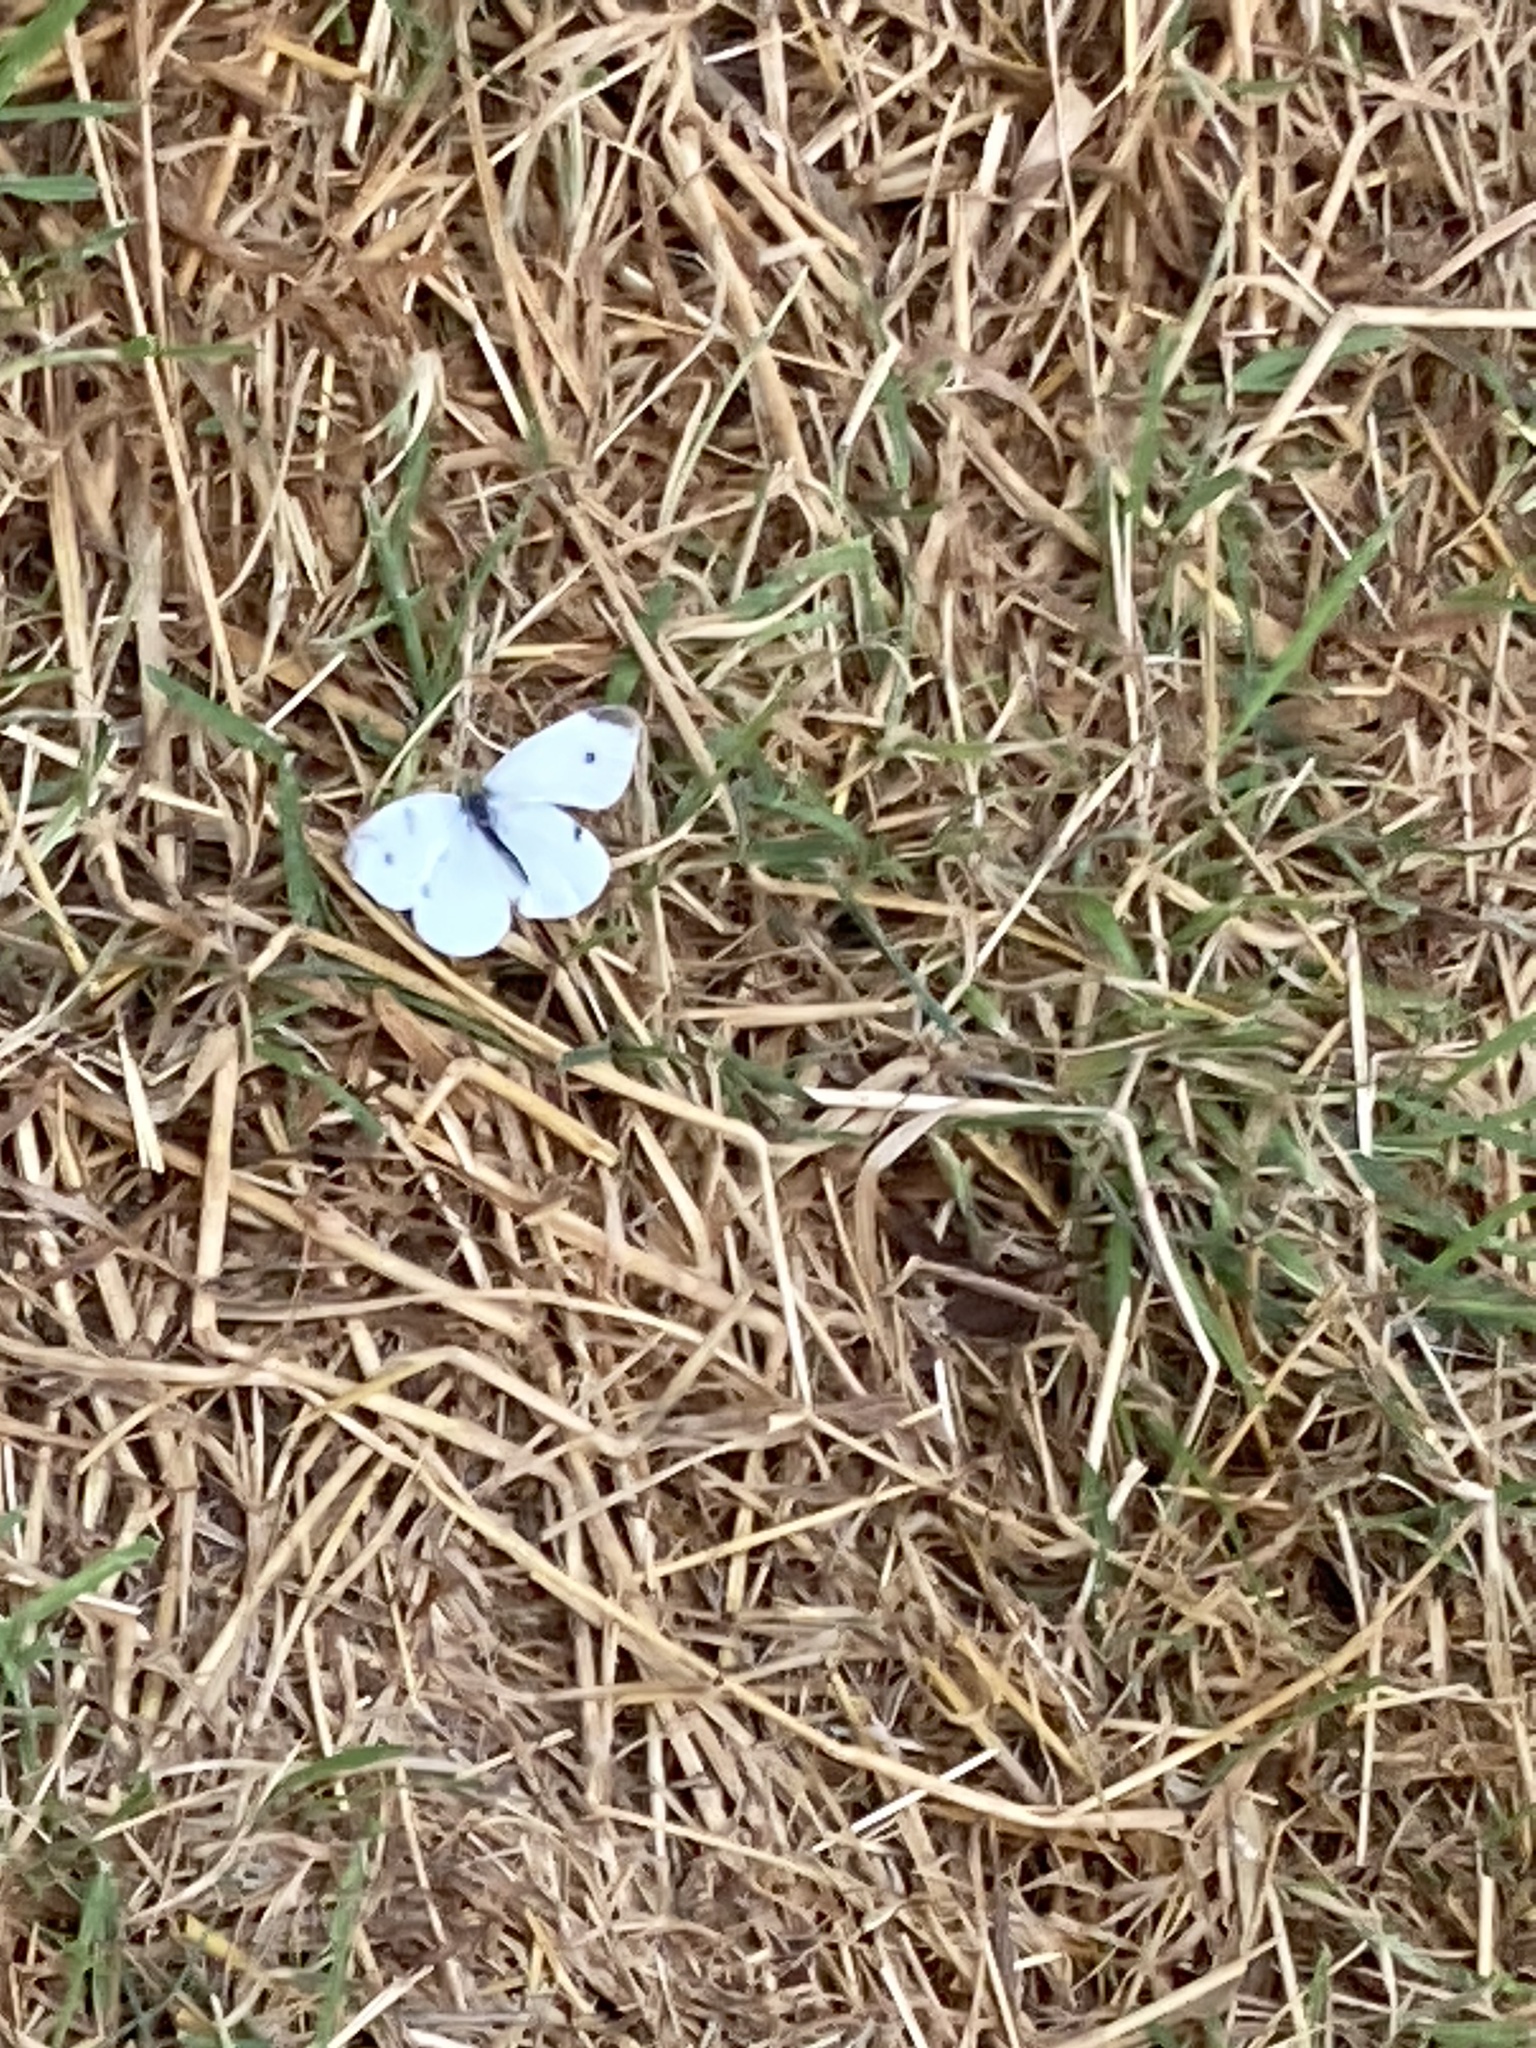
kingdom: Animalia
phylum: Arthropoda
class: Insecta
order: Lepidoptera
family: Pieridae
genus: Pieris
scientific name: Pieris rapae
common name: Small white
